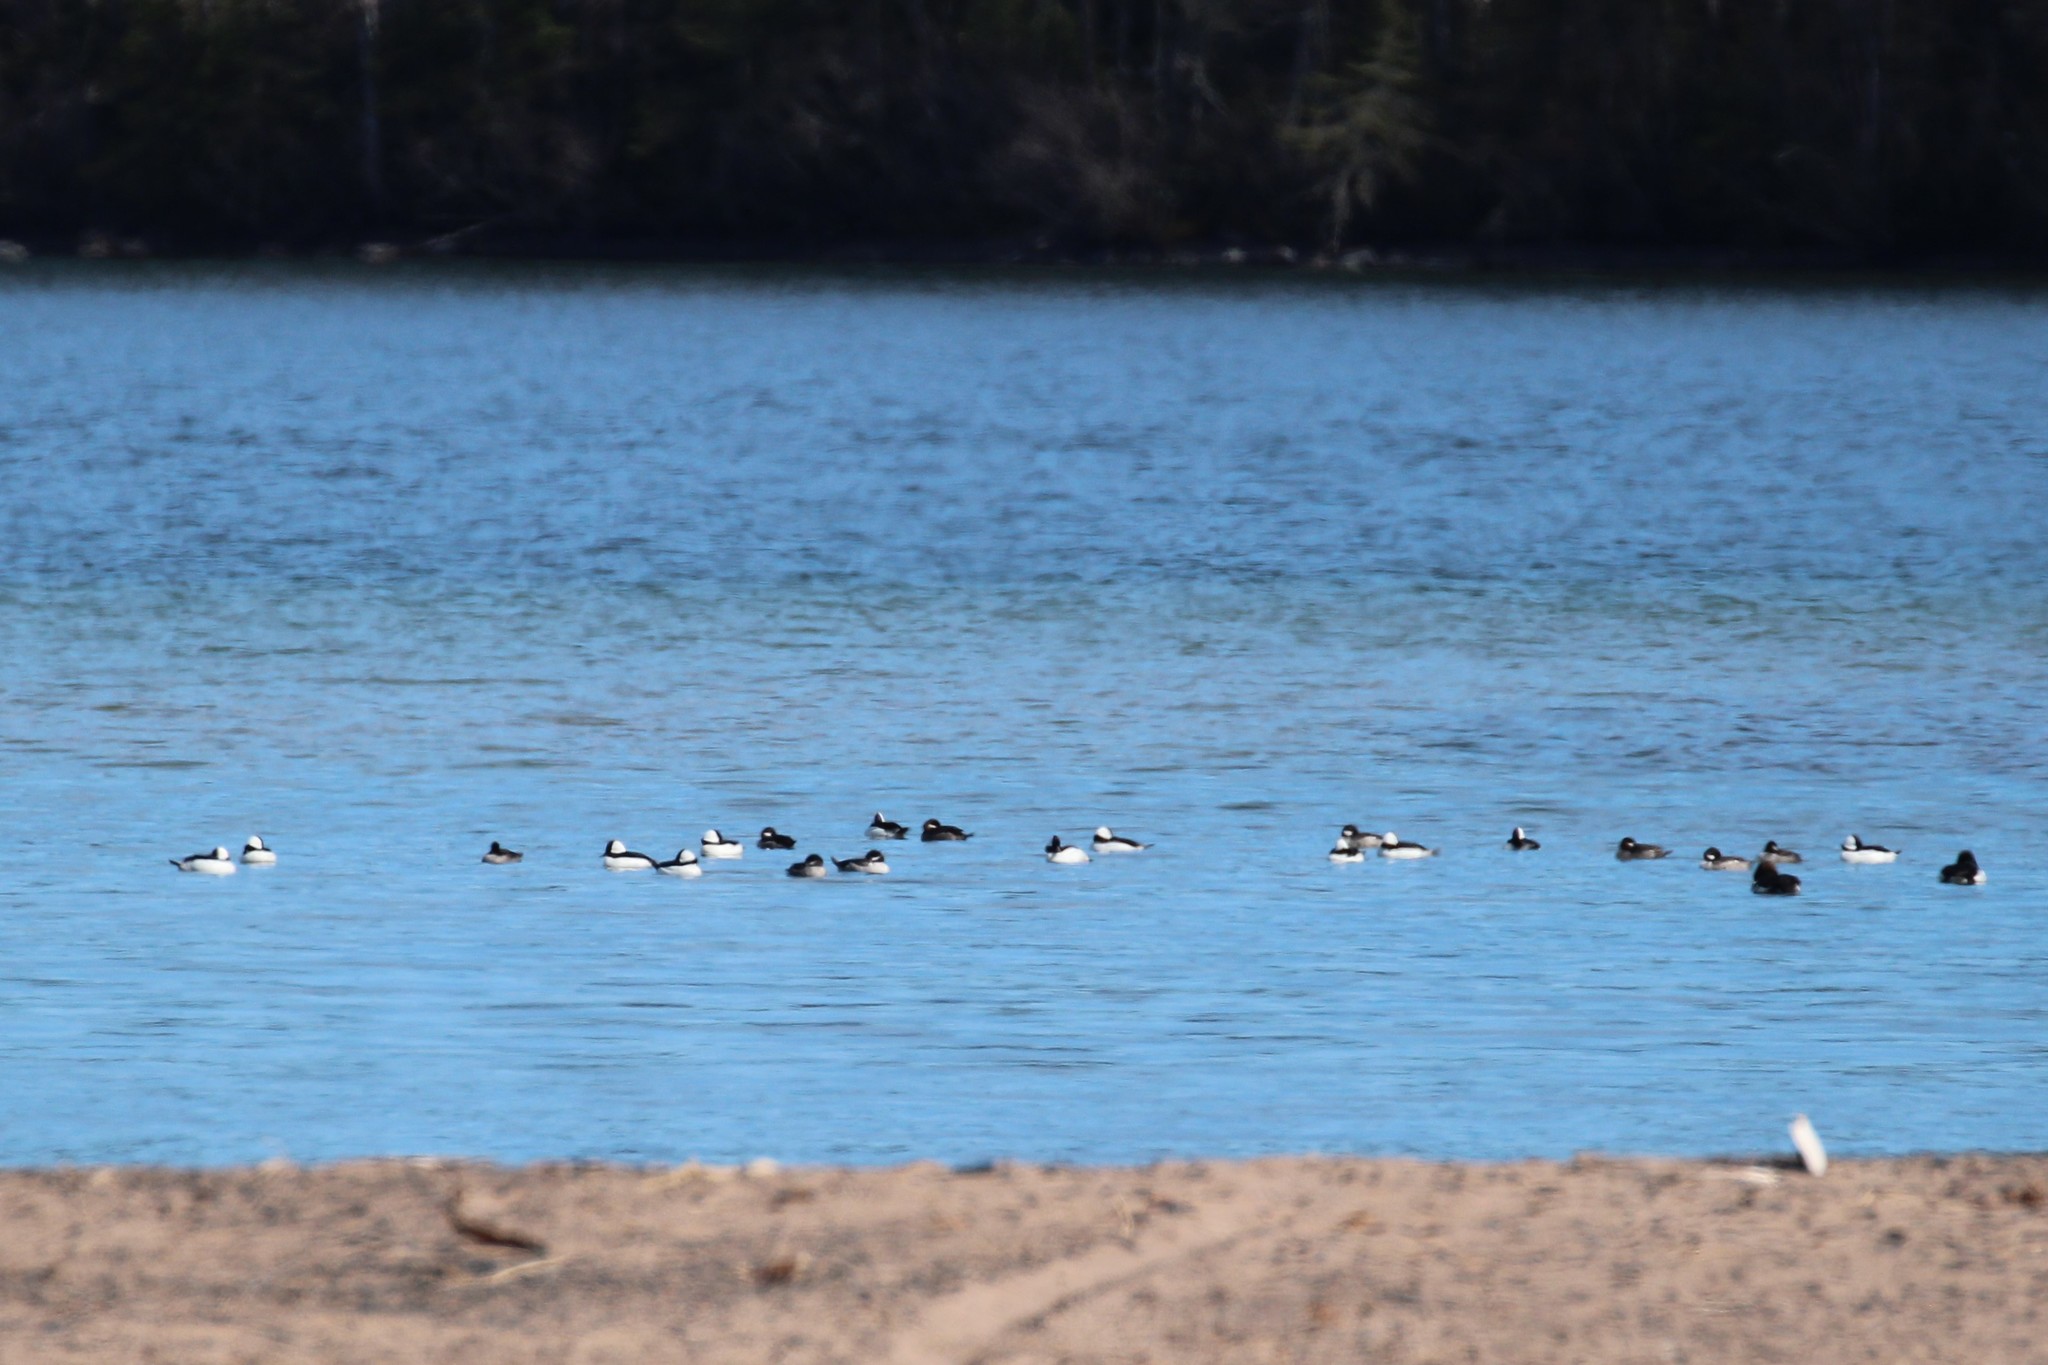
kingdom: Animalia
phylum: Chordata
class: Aves
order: Anseriformes
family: Anatidae
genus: Bucephala
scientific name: Bucephala albeola
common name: Bufflehead
